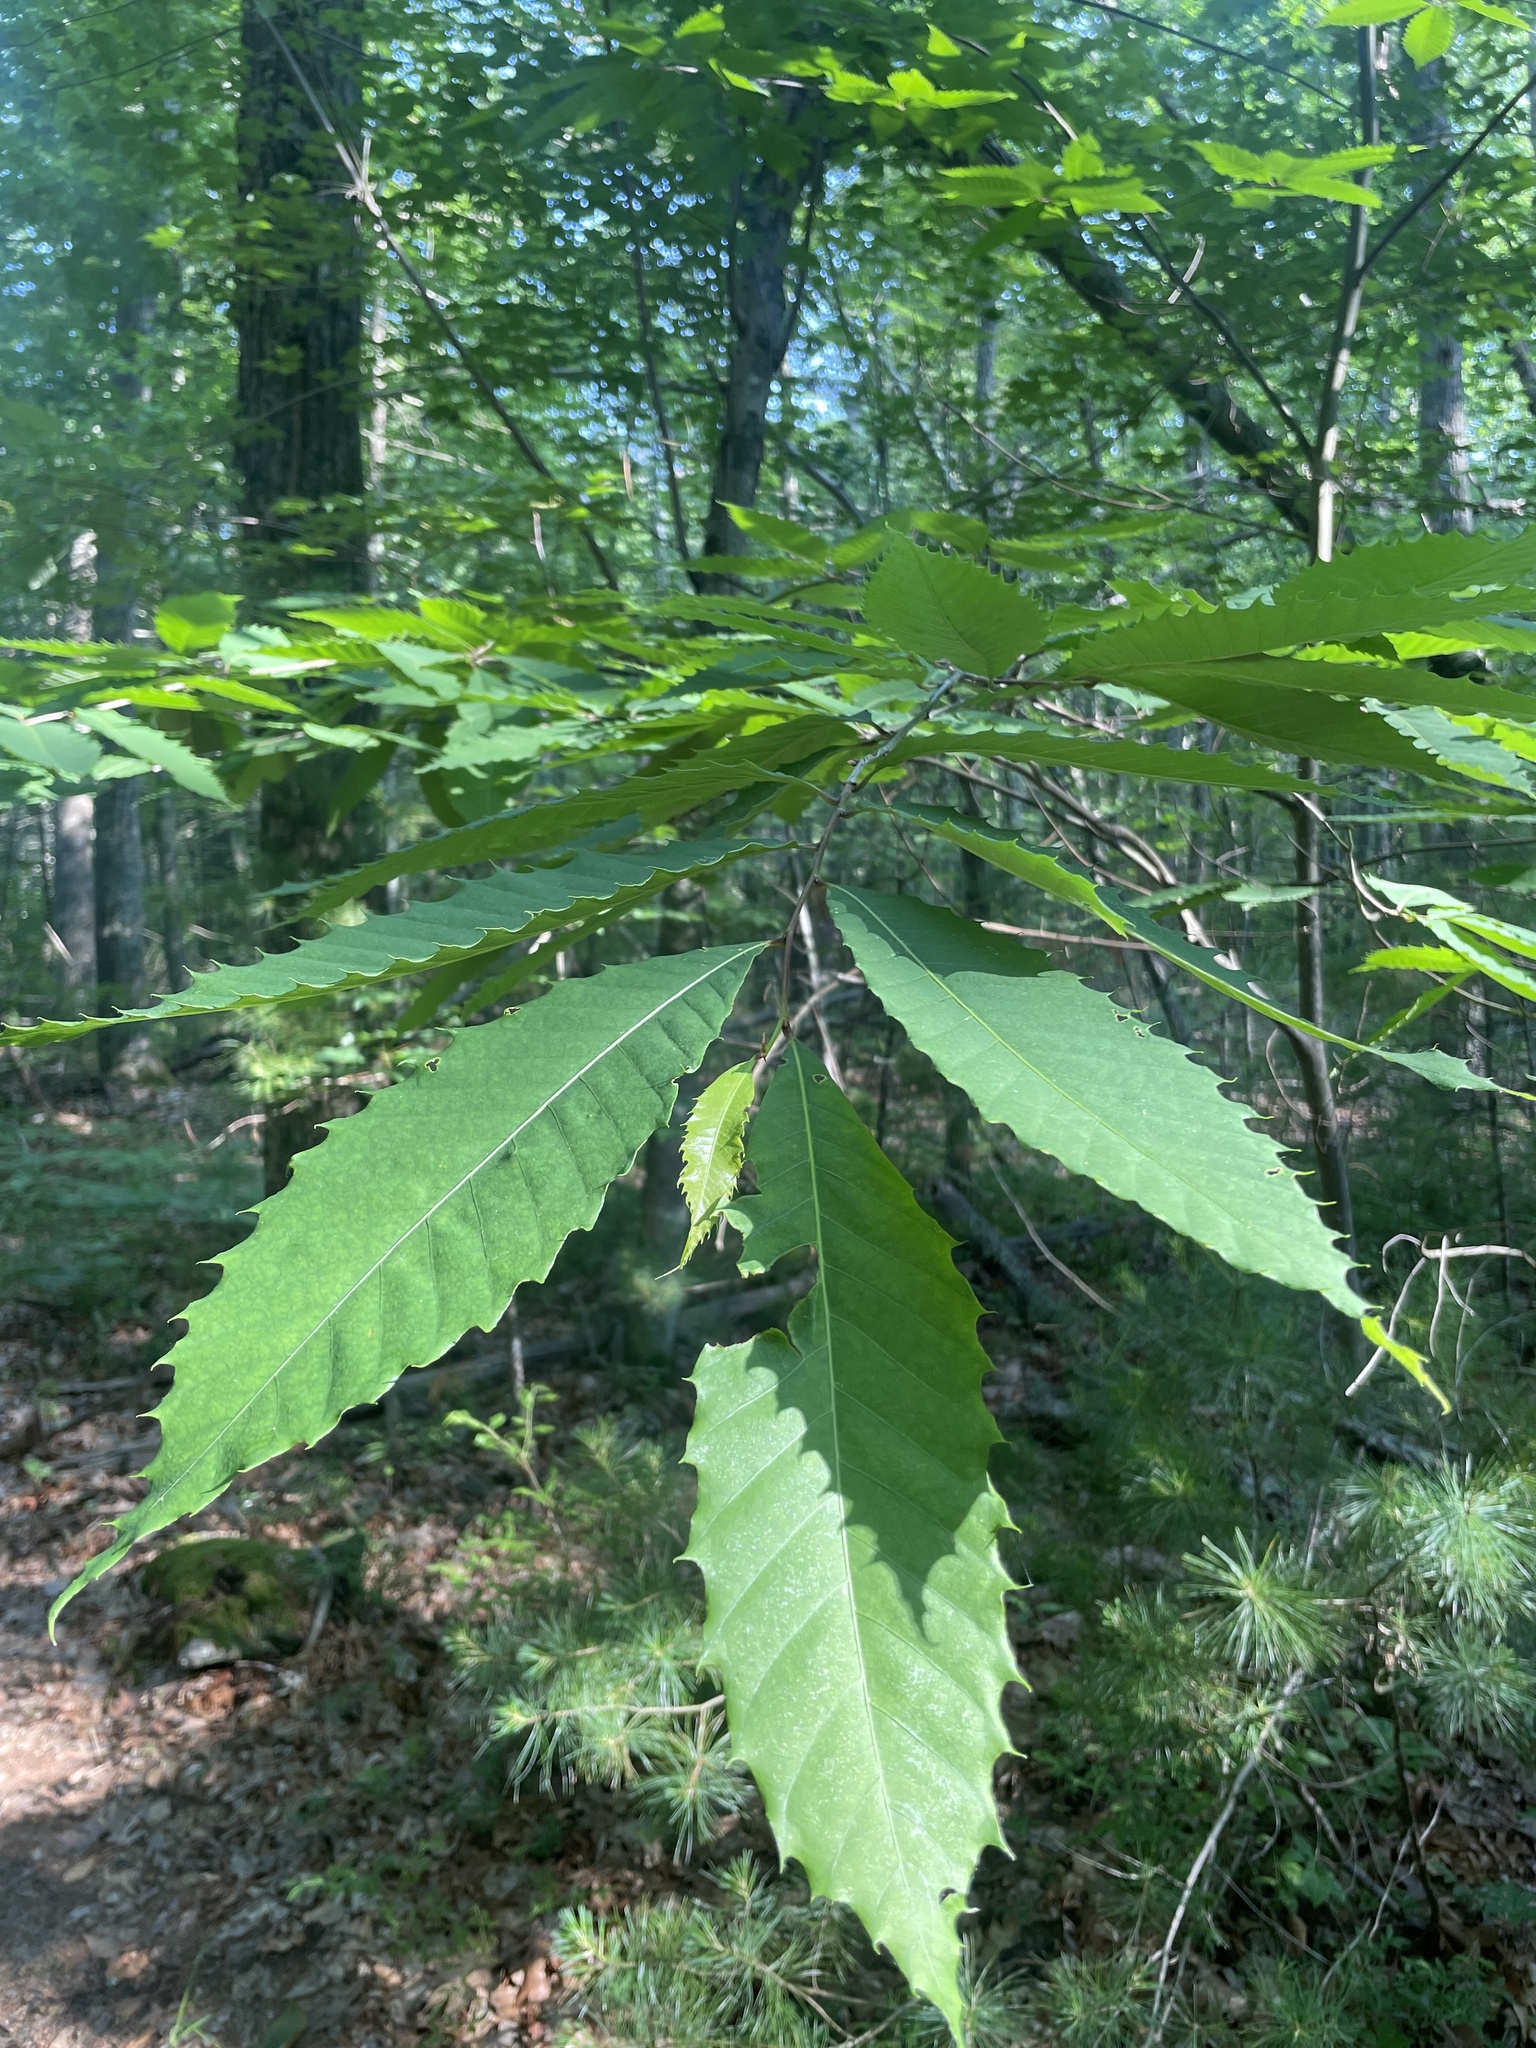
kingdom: Plantae
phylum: Tracheophyta
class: Magnoliopsida
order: Fagales
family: Fagaceae
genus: Castanea
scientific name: Castanea dentata
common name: American chestnut
